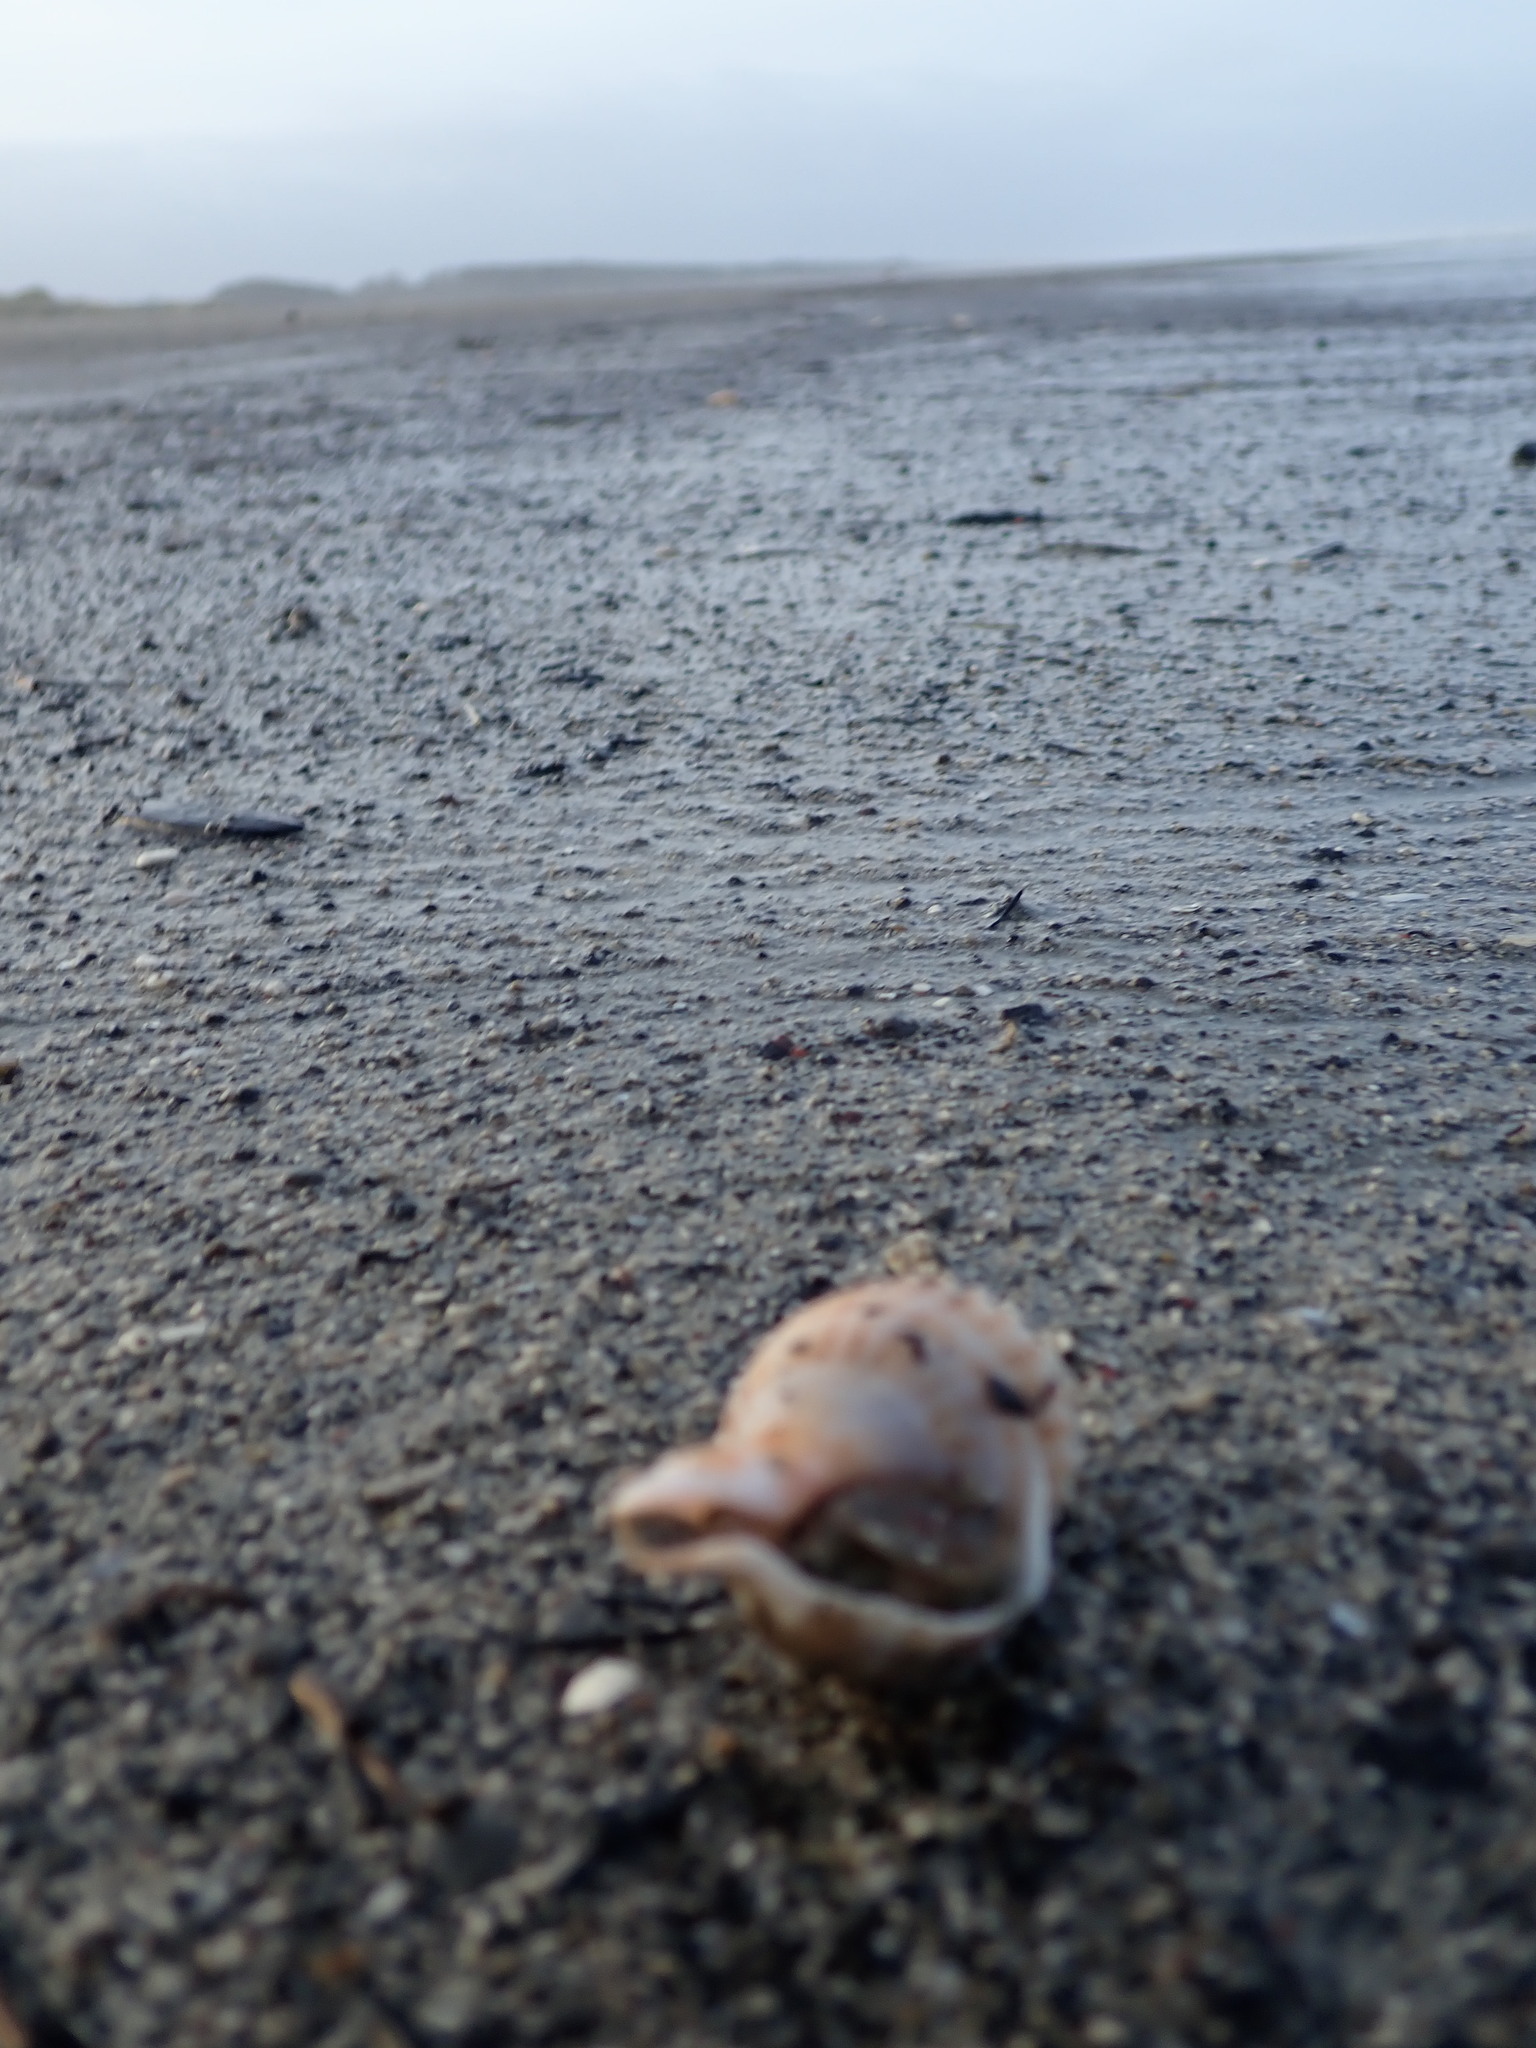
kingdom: Animalia
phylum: Mollusca
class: Gastropoda
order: Neogastropoda
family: Prosiphonidae
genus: Austrofusus
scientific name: Austrofusus glans
